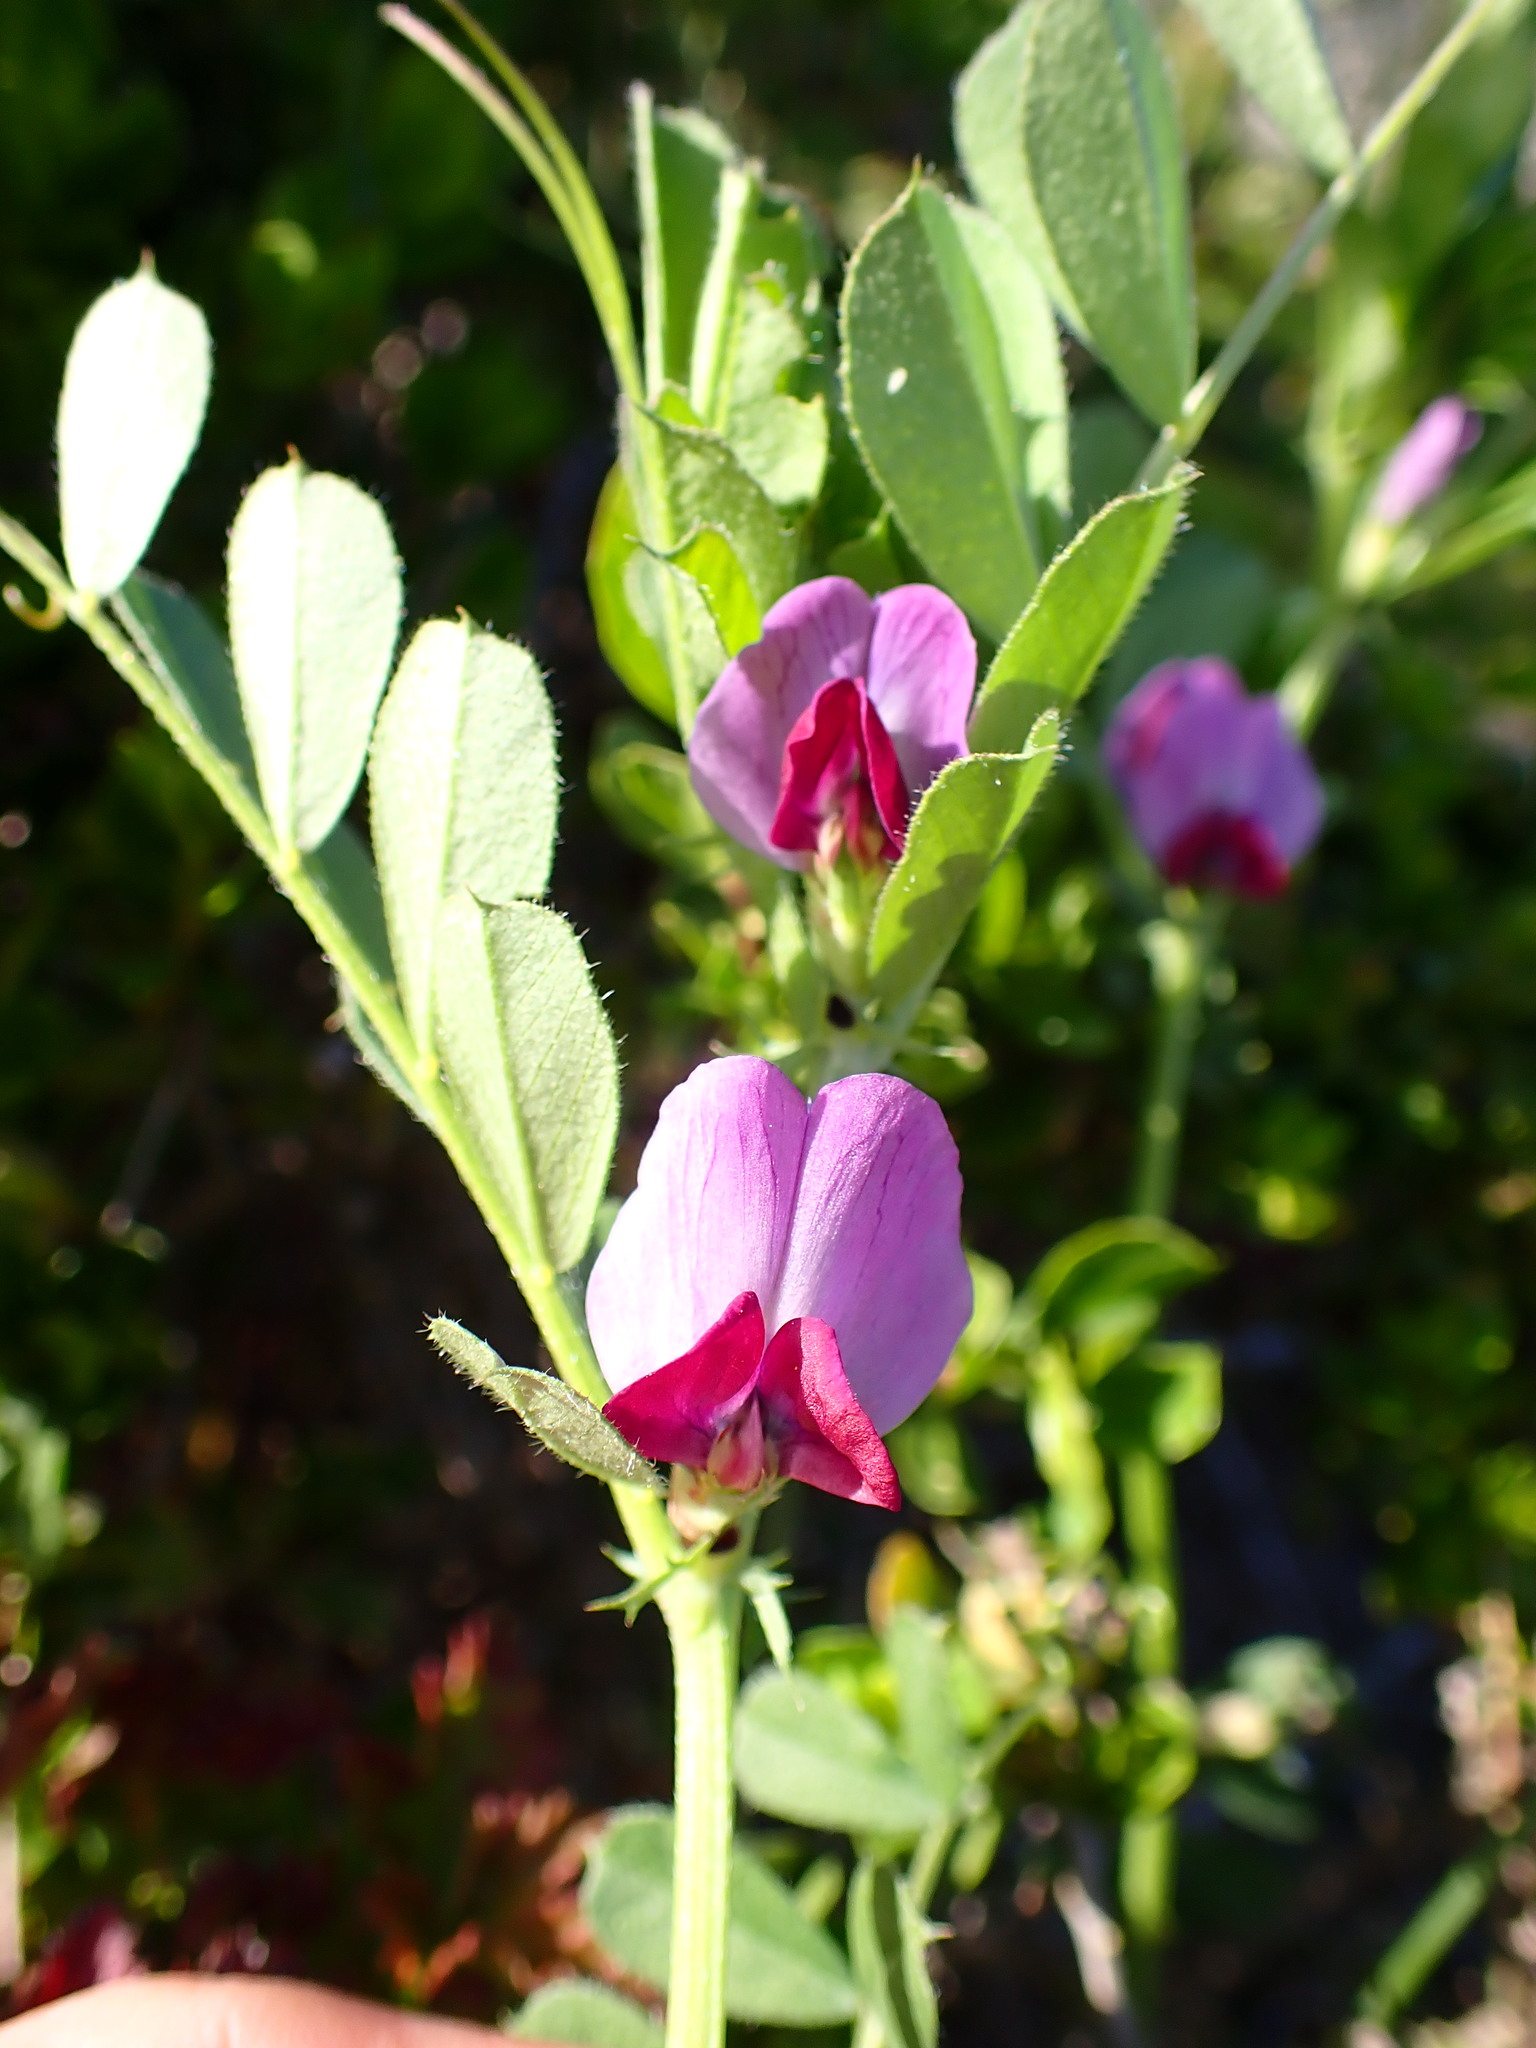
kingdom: Plantae
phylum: Tracheophyta
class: Magnoliopsida
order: Fabales
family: Fabaceae
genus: Vicia
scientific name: Vicia sativa
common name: Garden vetch
